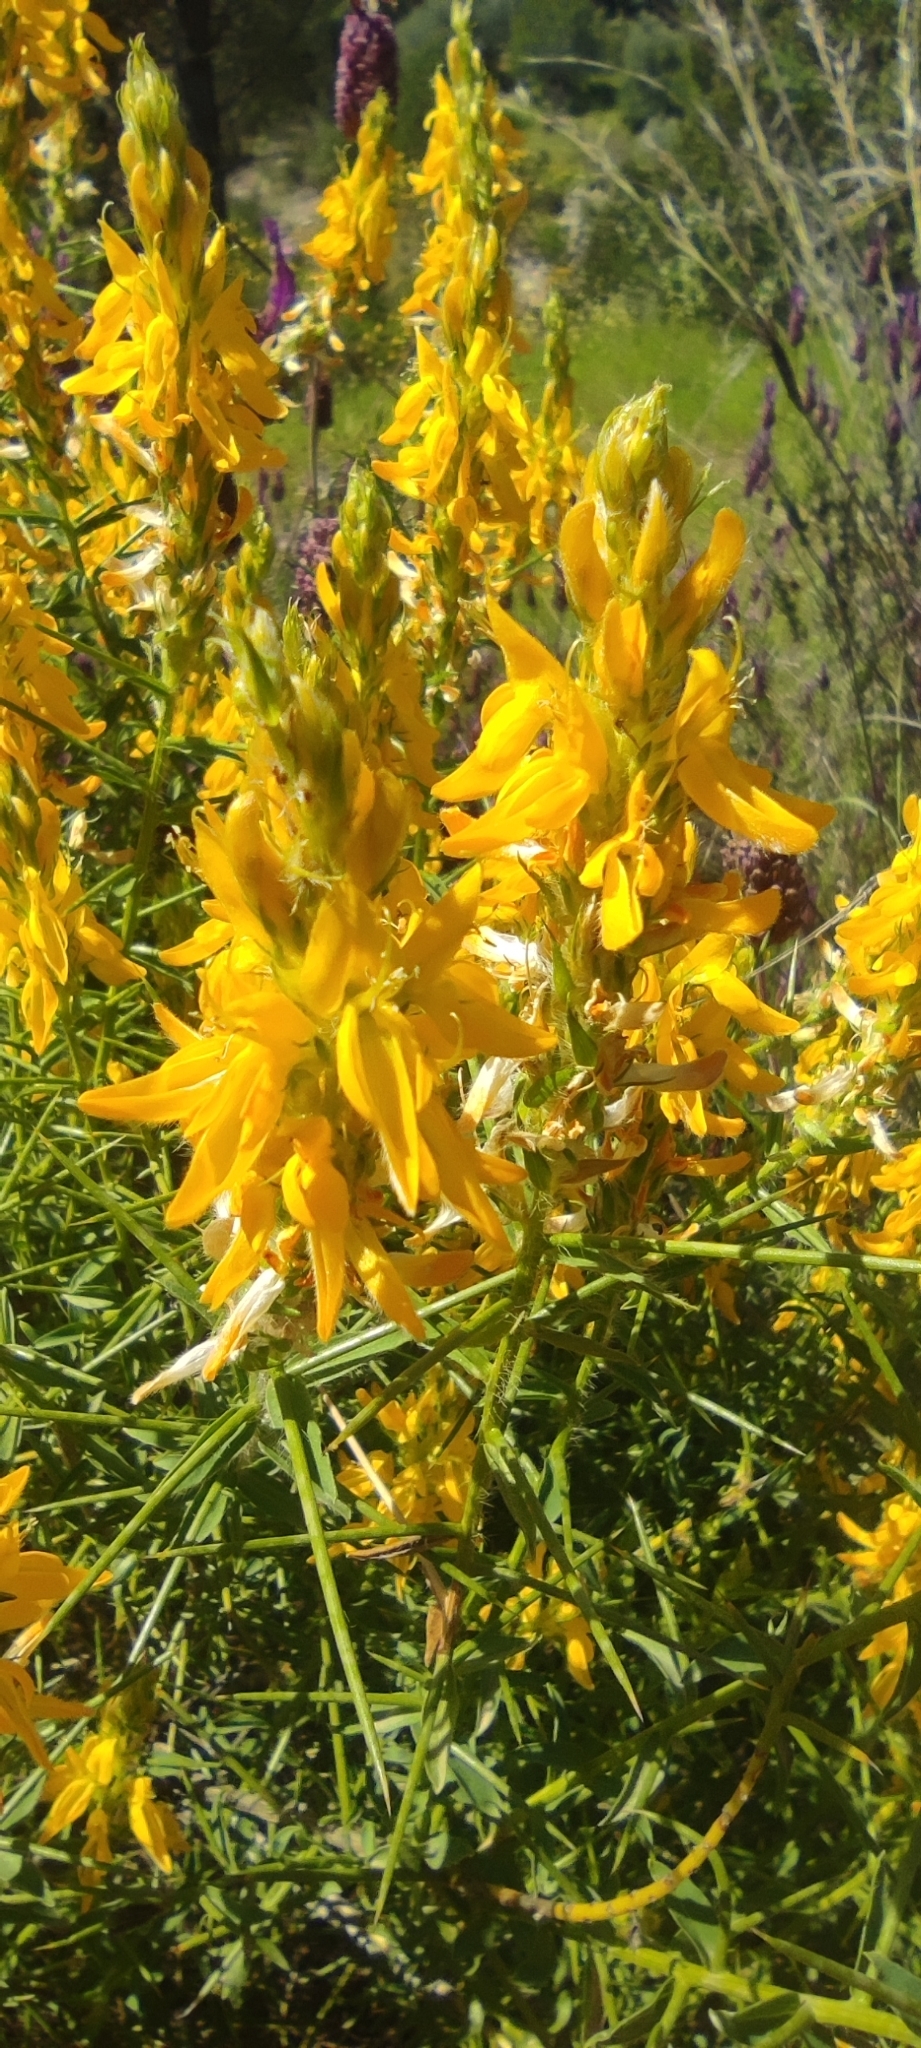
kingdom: Plantae
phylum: Tracheophyta
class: Magnoliopsida
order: Fabales
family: Fabaceae
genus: Genista
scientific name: Genista hirsuta
